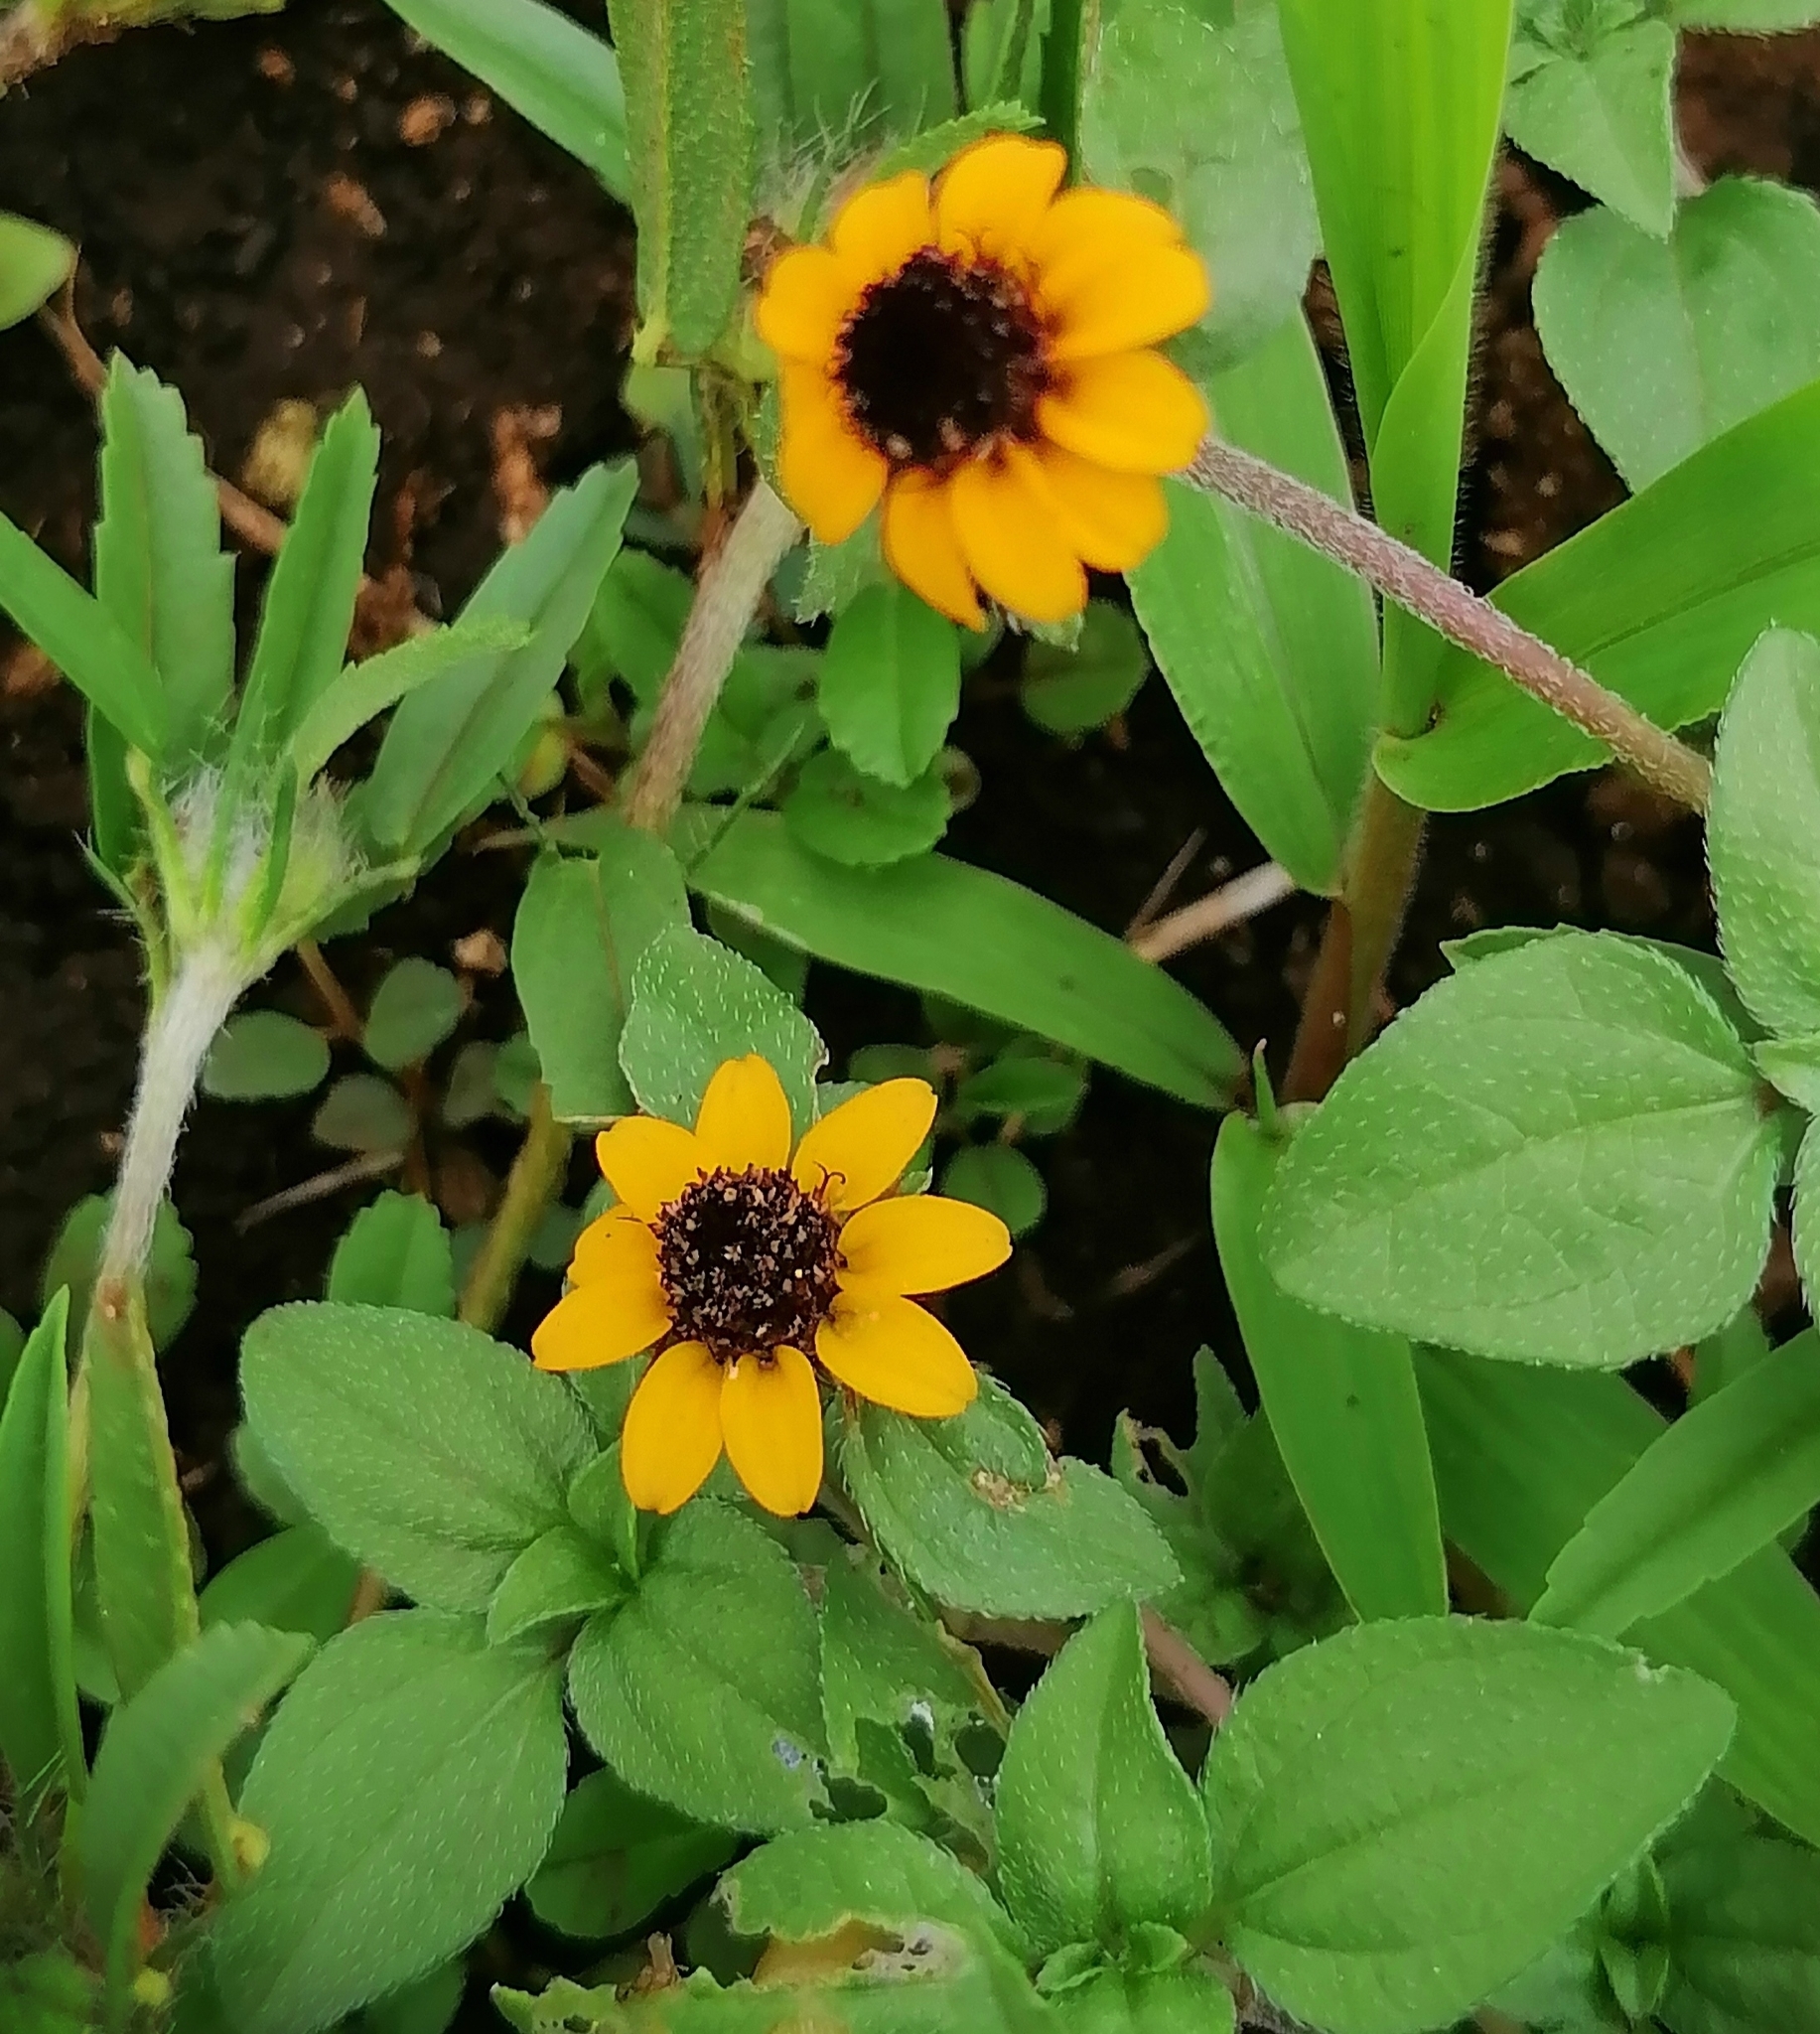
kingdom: Plantae
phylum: Tracheophyta
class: Magnoliopsida
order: Asterales
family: Asteraceae
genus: Sanvitalia
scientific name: Sanvitalia procumbens
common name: Mexican creeping zinnia
